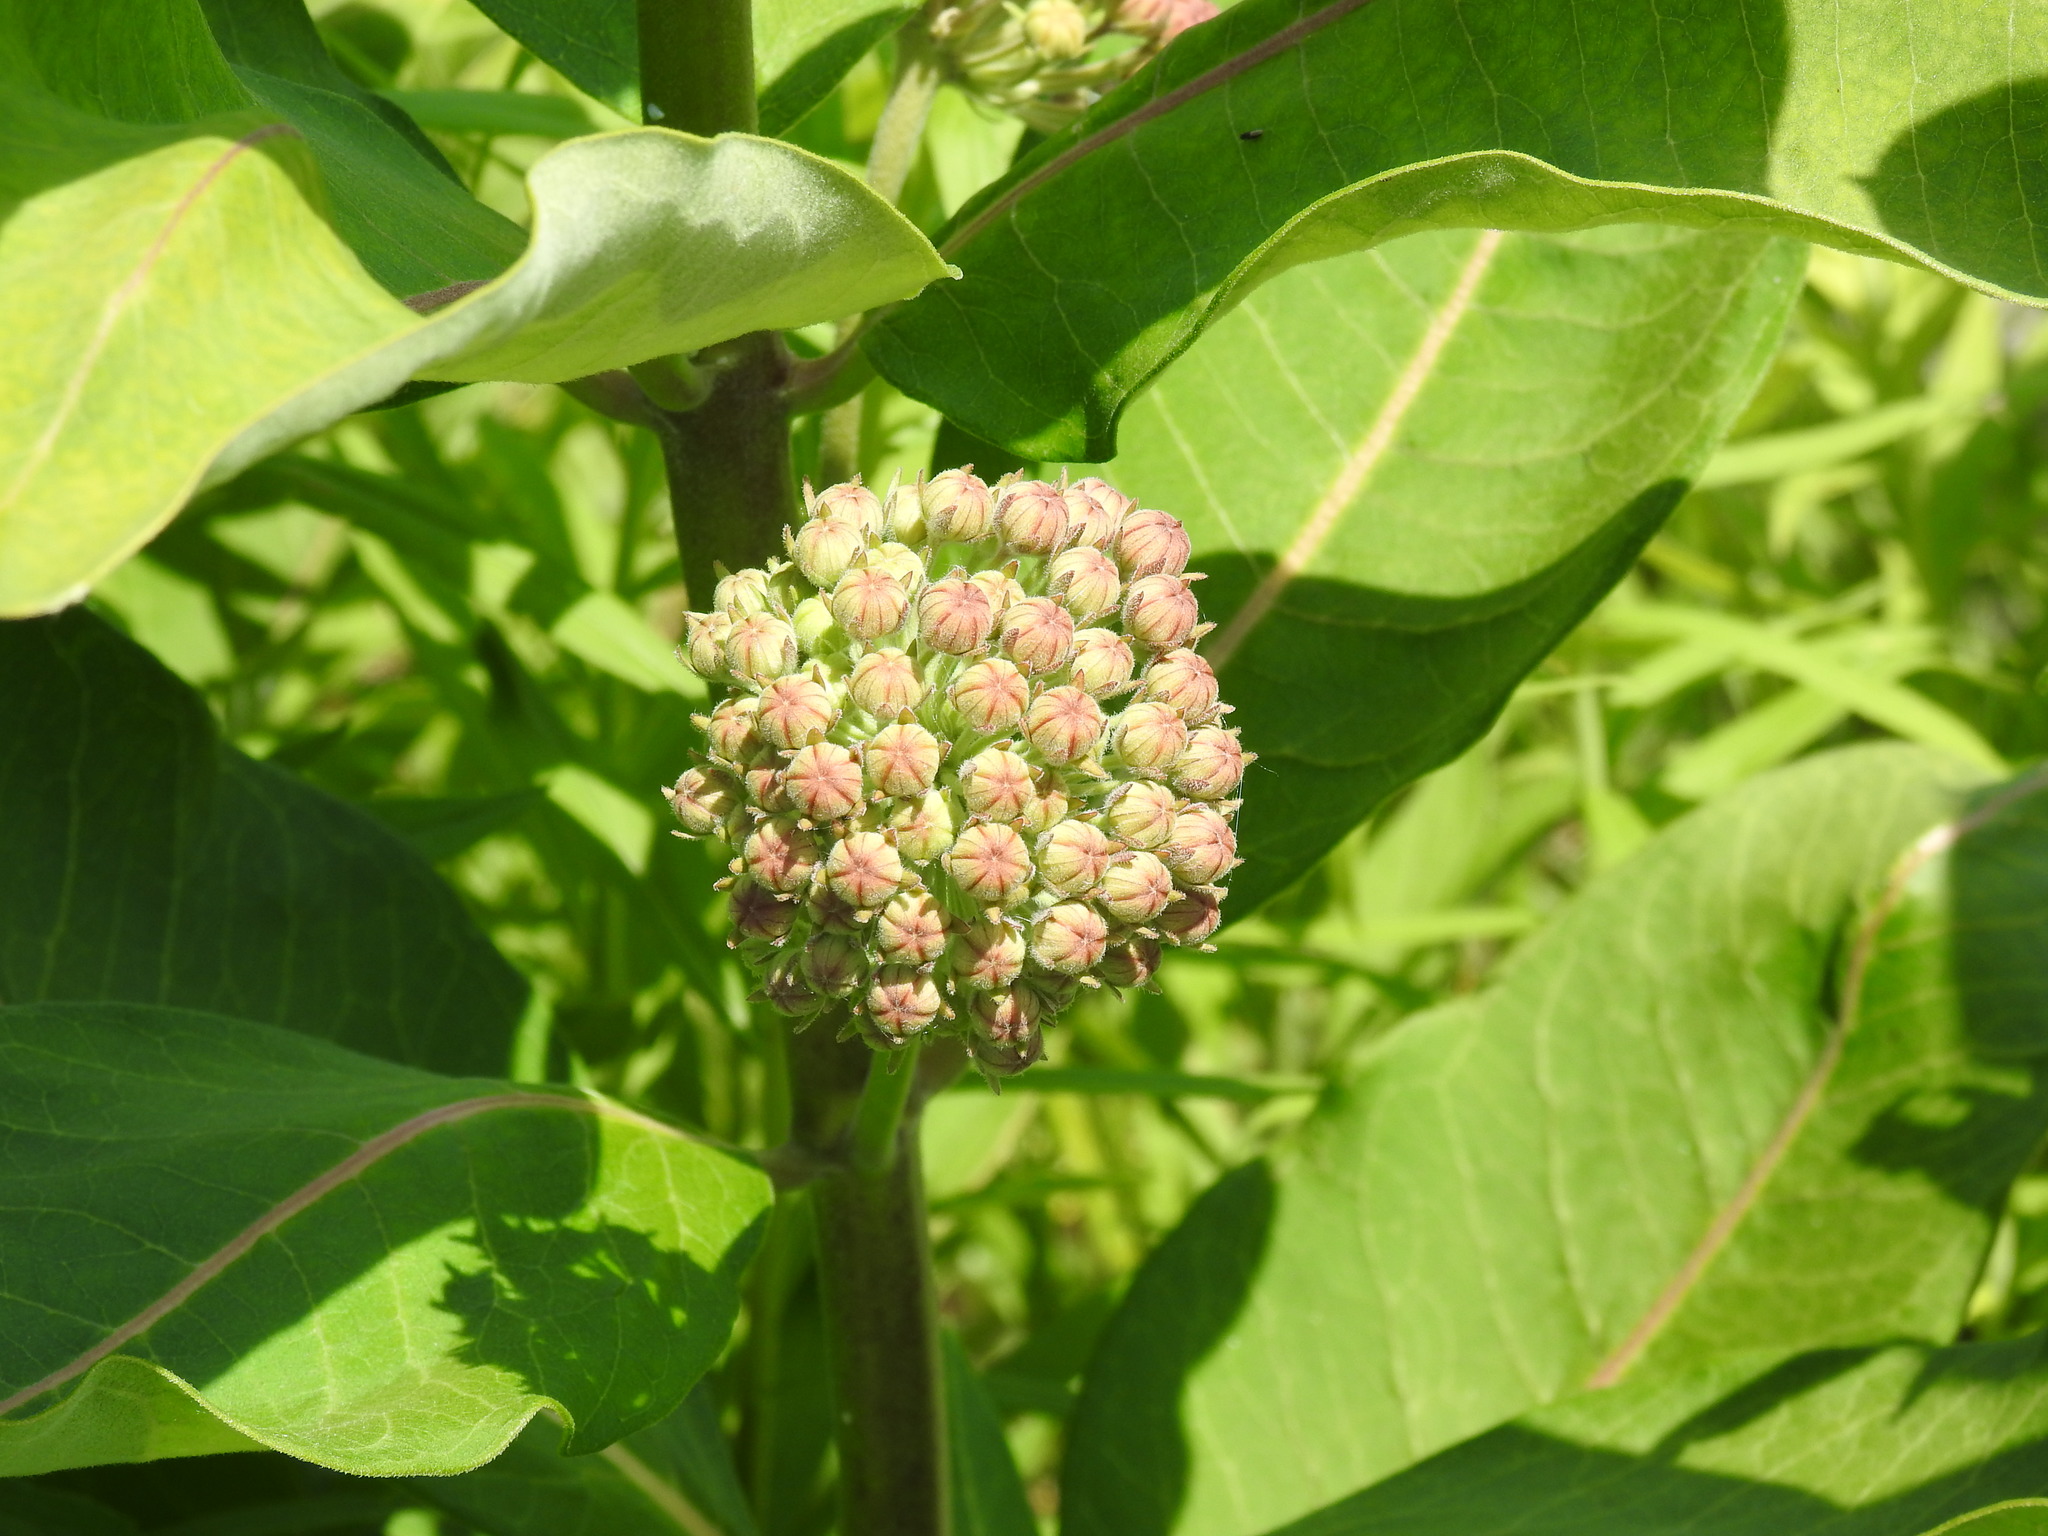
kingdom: Plantae
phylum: Tracheophyta
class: Magnoliopsida
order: Gentianales
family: Apocynaceae
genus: Asclepias
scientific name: Asclepias syriaca
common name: Common milkweed
